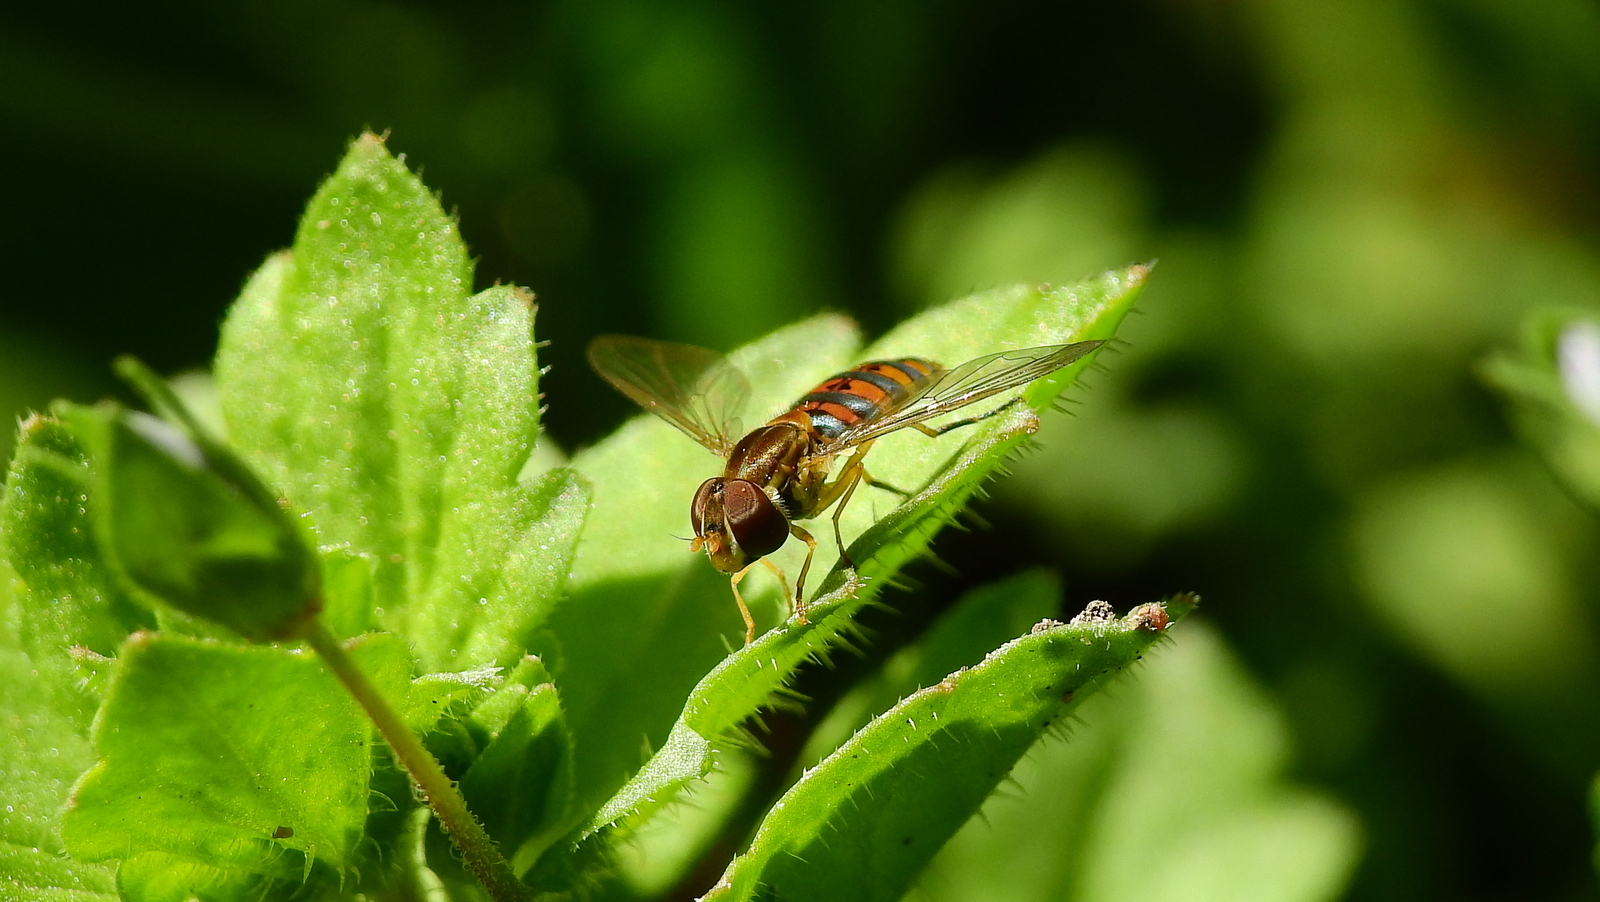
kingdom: Animalia
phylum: Arthropoda
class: Insecta
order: Diptera
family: Syrphidae
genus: Toxomerus
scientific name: Toxomerus
